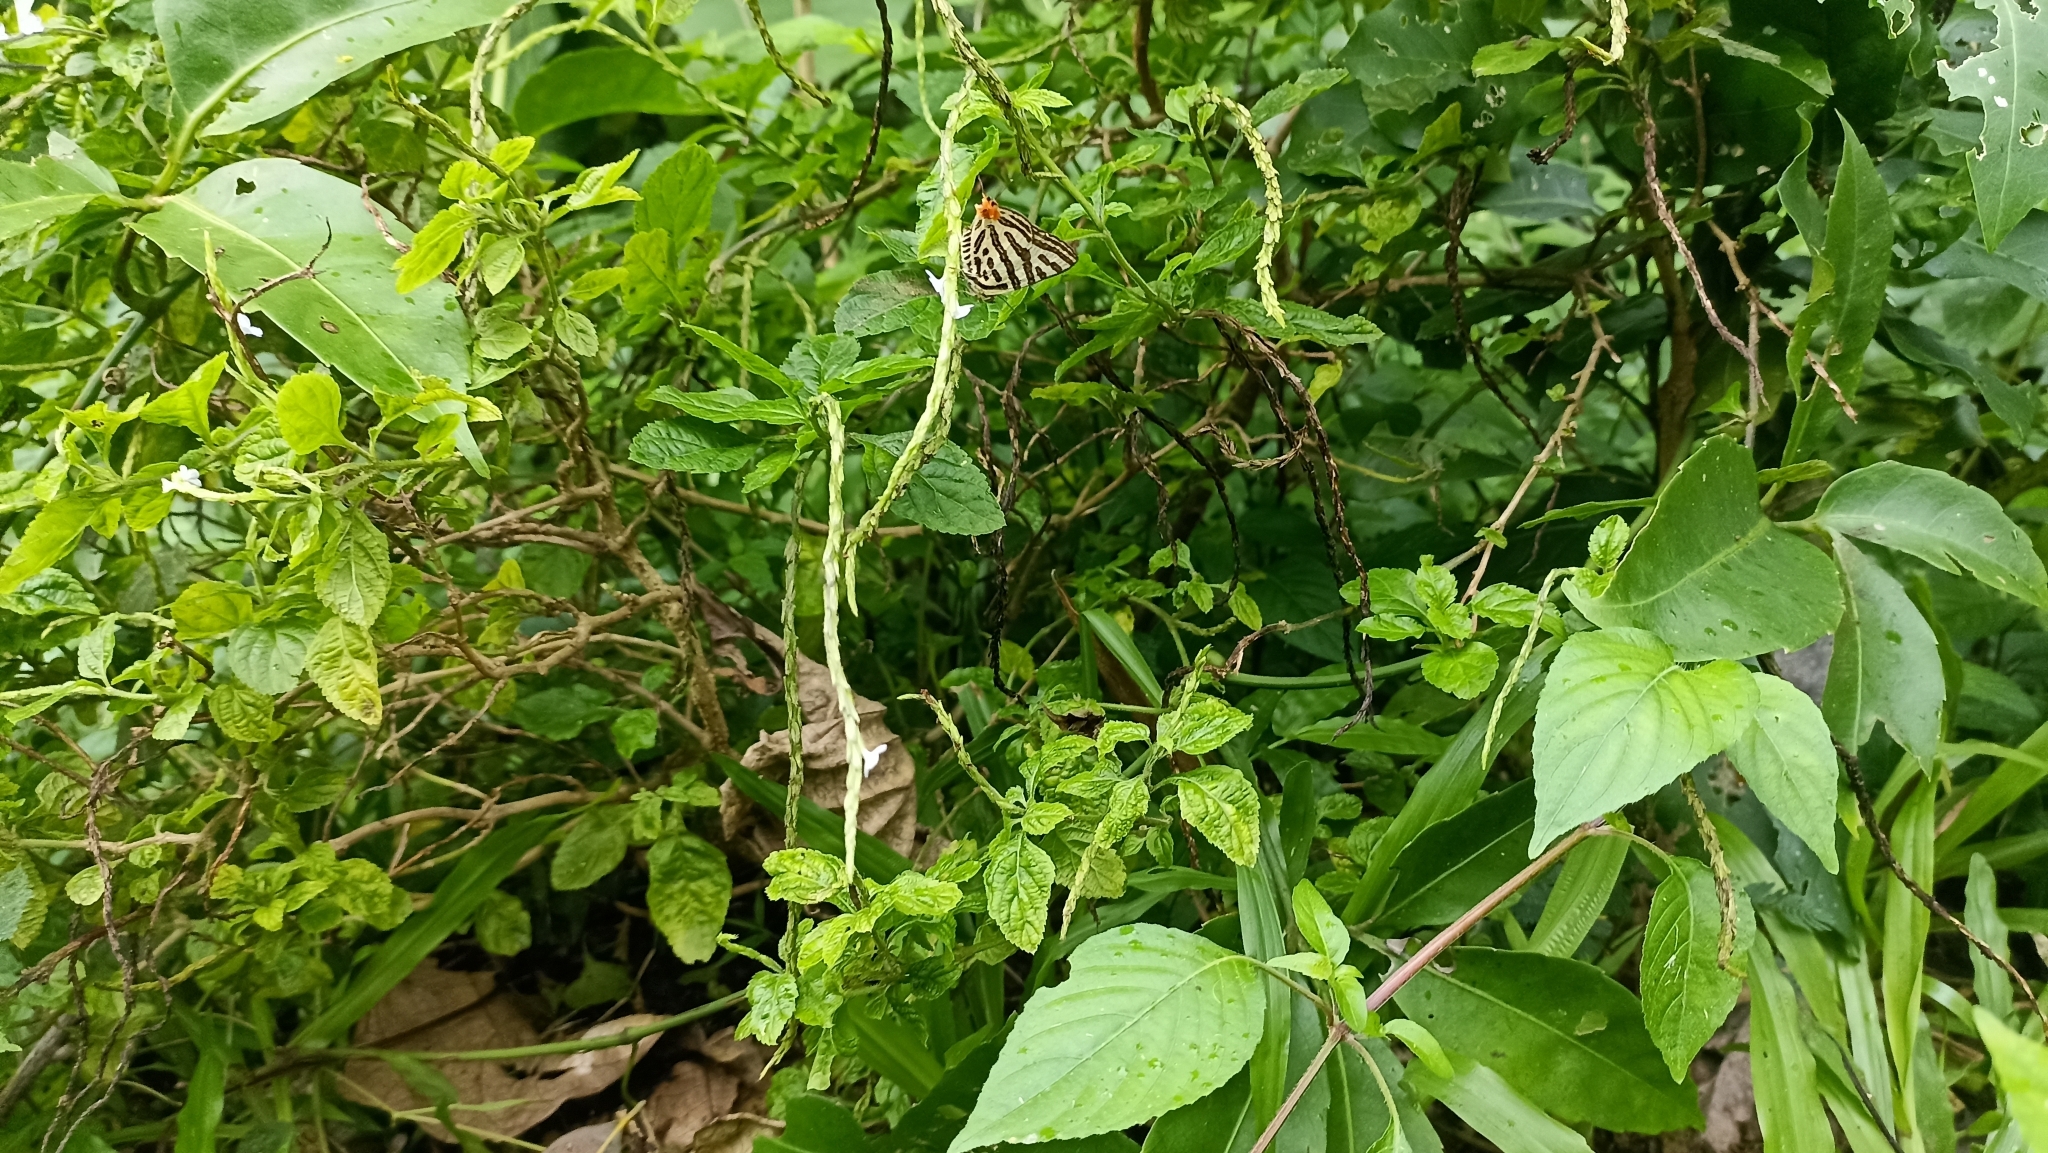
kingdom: Animalia
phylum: Arthropoda
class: Insecta
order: Lepidoptera
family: Lycaenidae
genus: Cigaritis
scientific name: Cigaritis syama
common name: Club silverline
